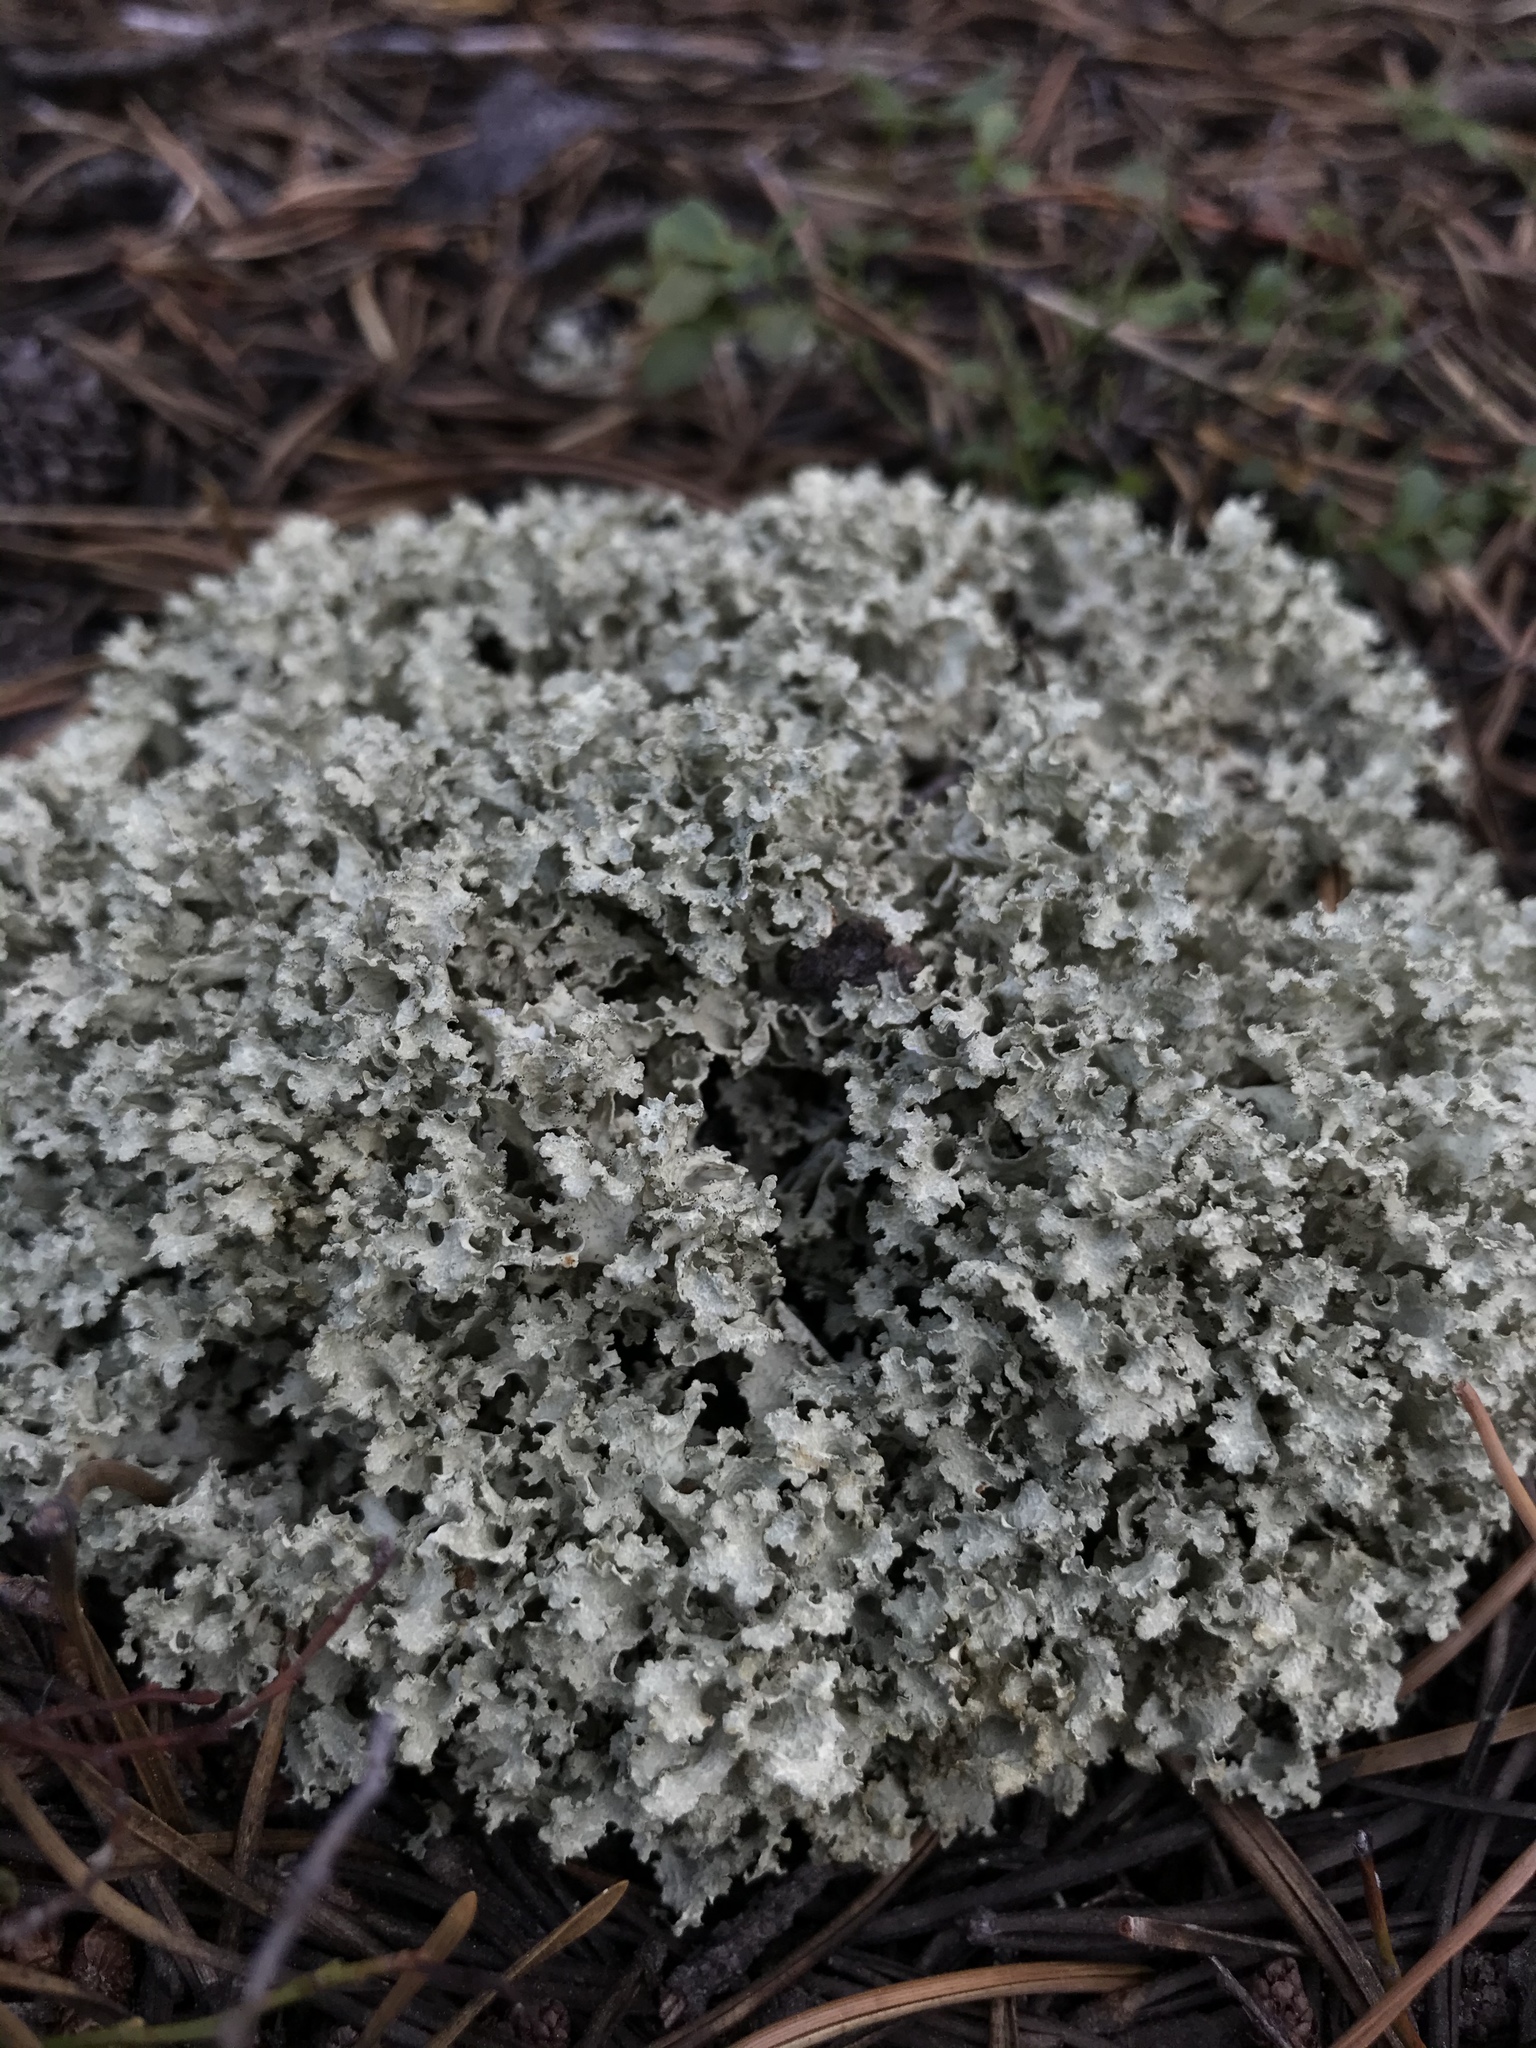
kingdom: Fungi
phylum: Ascomycota
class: Lecanoromycetes
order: Lecanorales
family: Parmeliaceae
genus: Nephromopsis
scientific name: Nephromopsis nivalis
